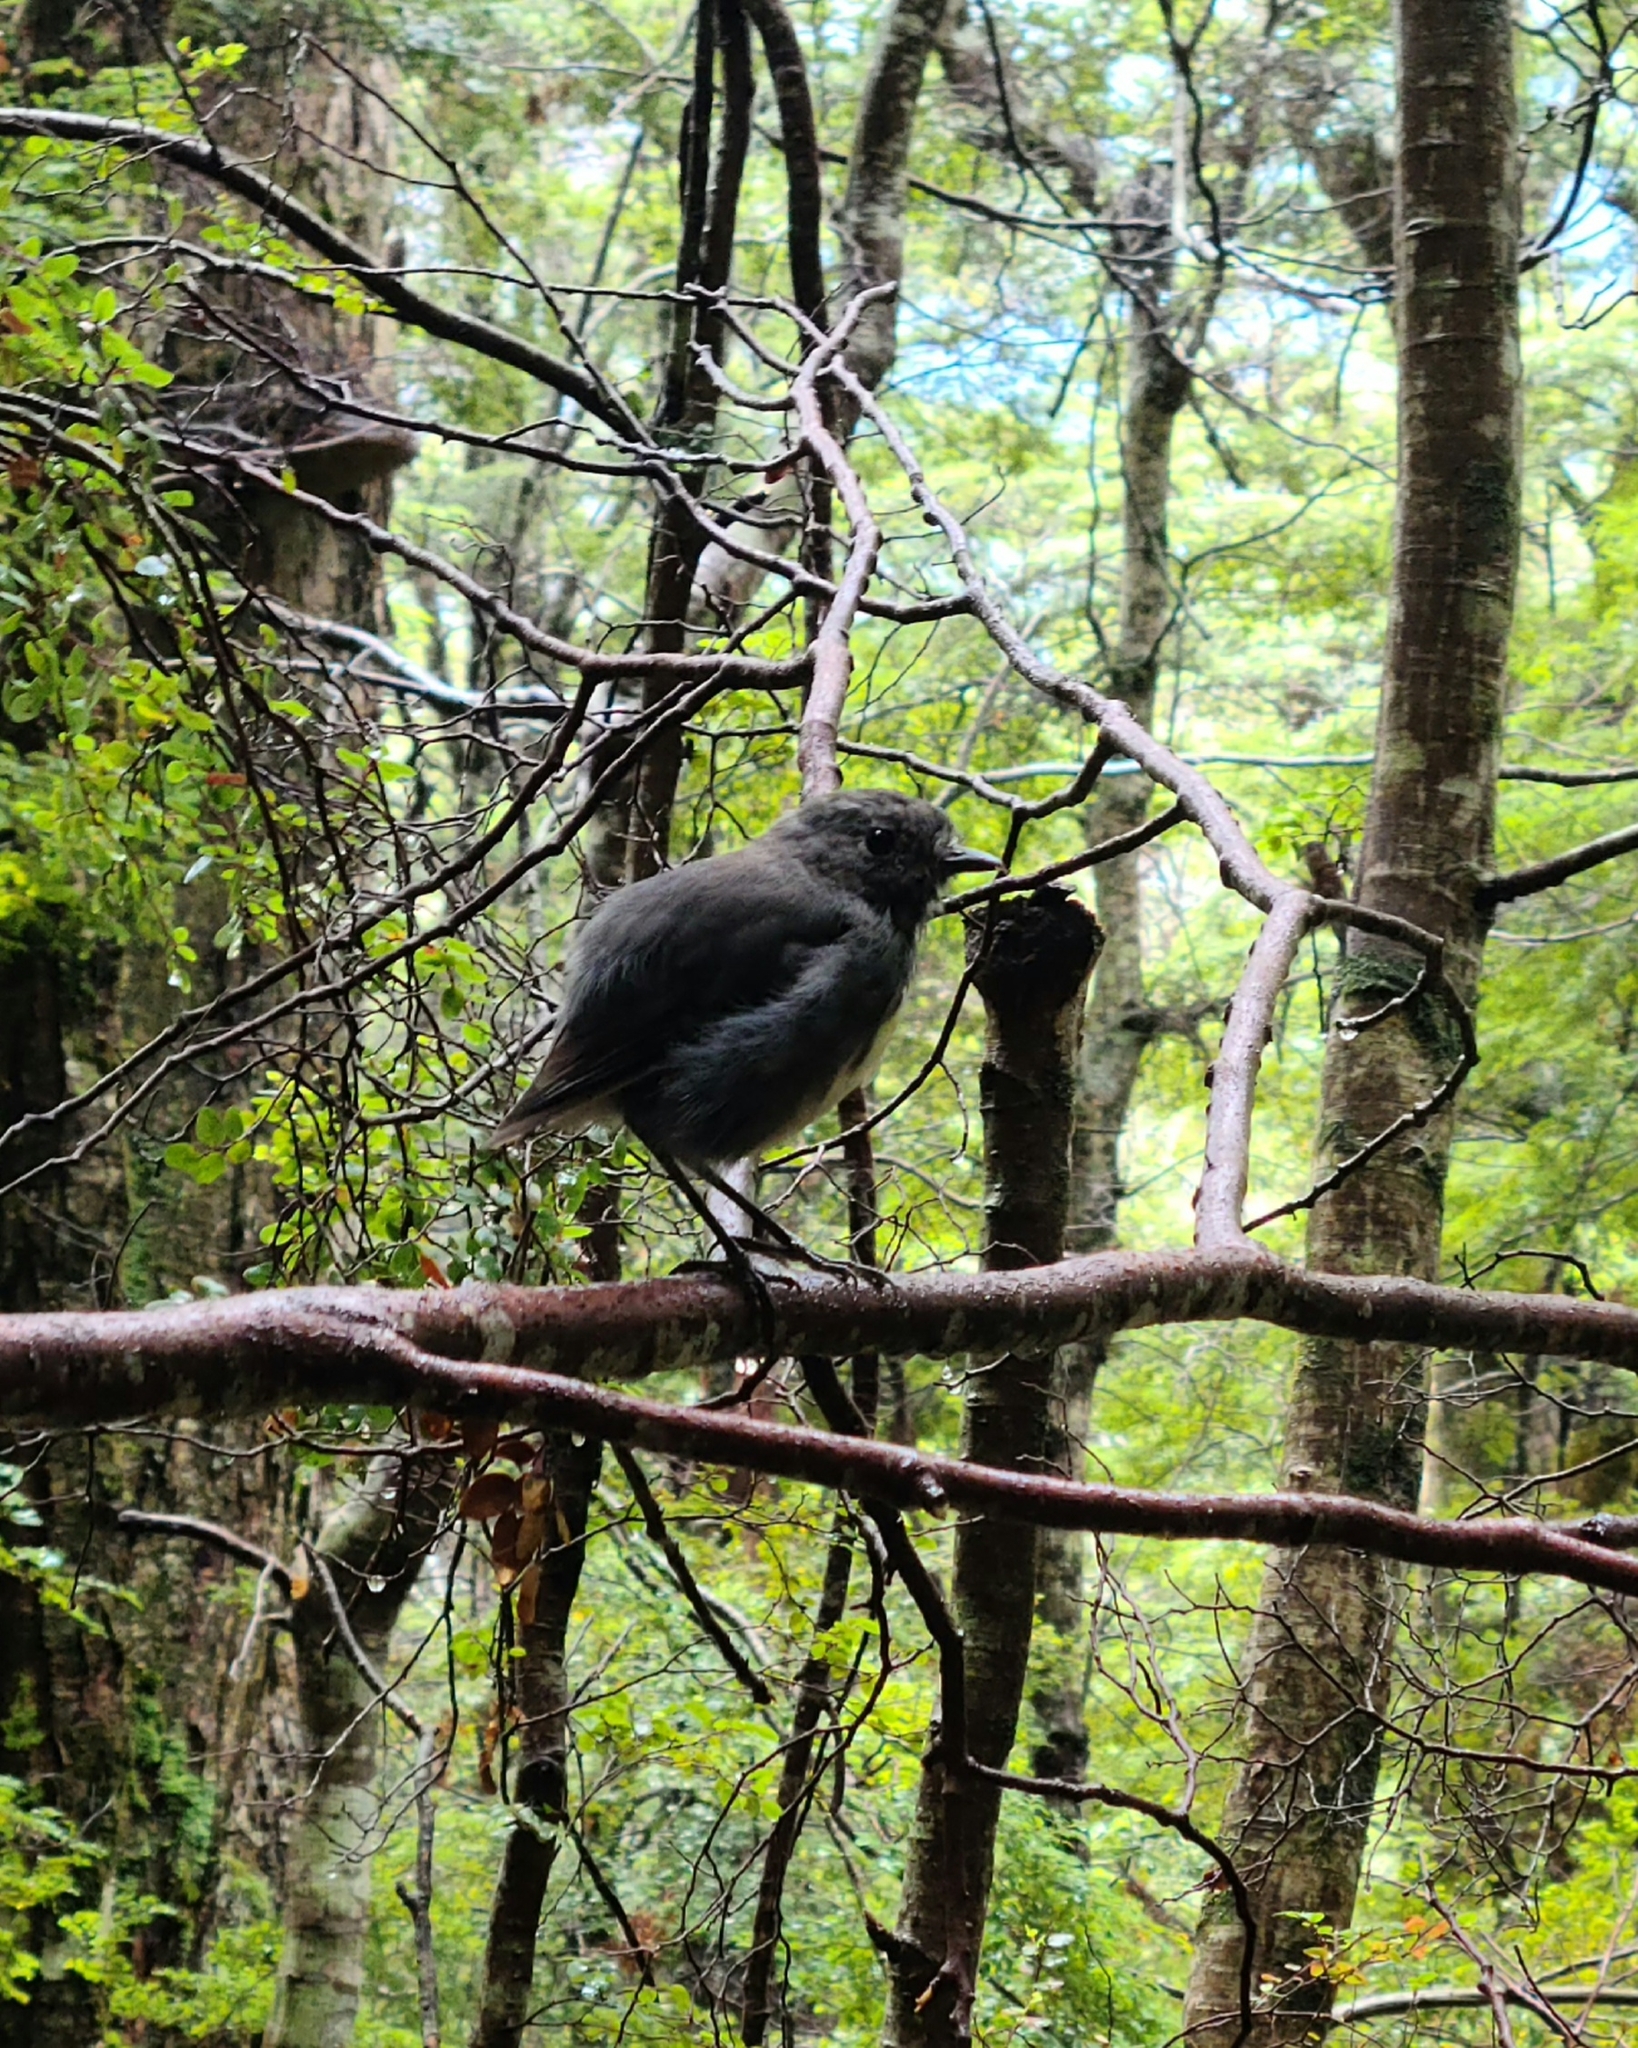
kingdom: Animalia
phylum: Chordata
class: Aves
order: Passeriformes
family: Petroicidae
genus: Petroica
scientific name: Petroica australis
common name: New zealand robin
